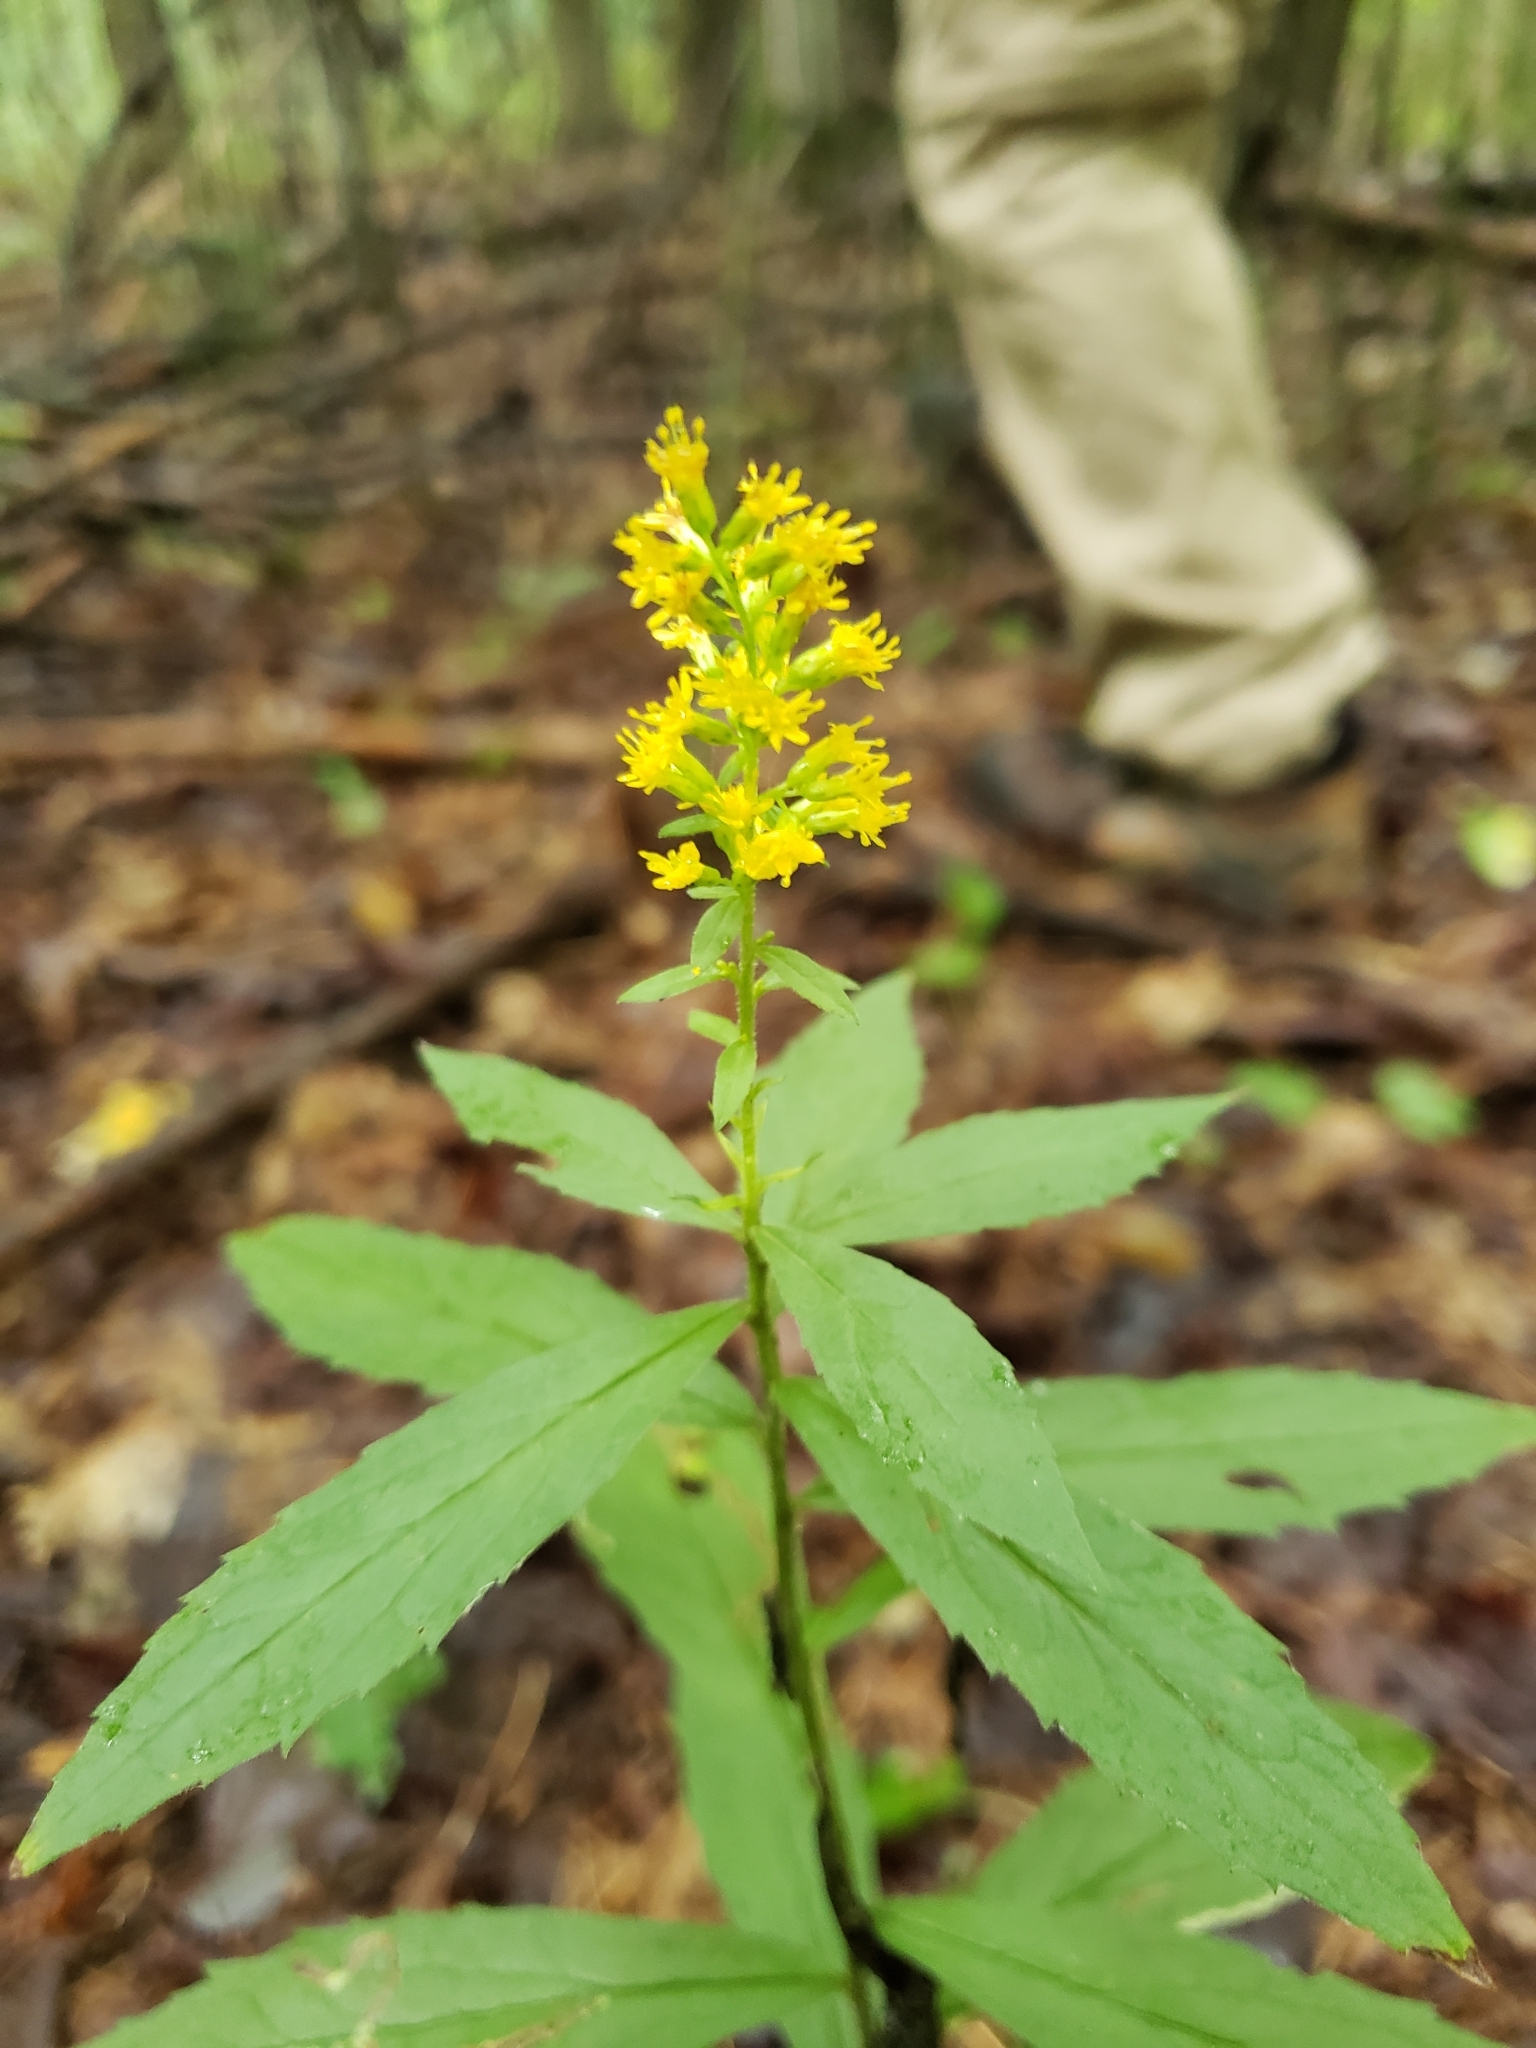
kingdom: Plantae
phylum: Tracheophyta
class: Magnoliopsida
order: Asterales
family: Asteraceae
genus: Solidago
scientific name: Solidago rugosa
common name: Rough-stemmed goldenrod
